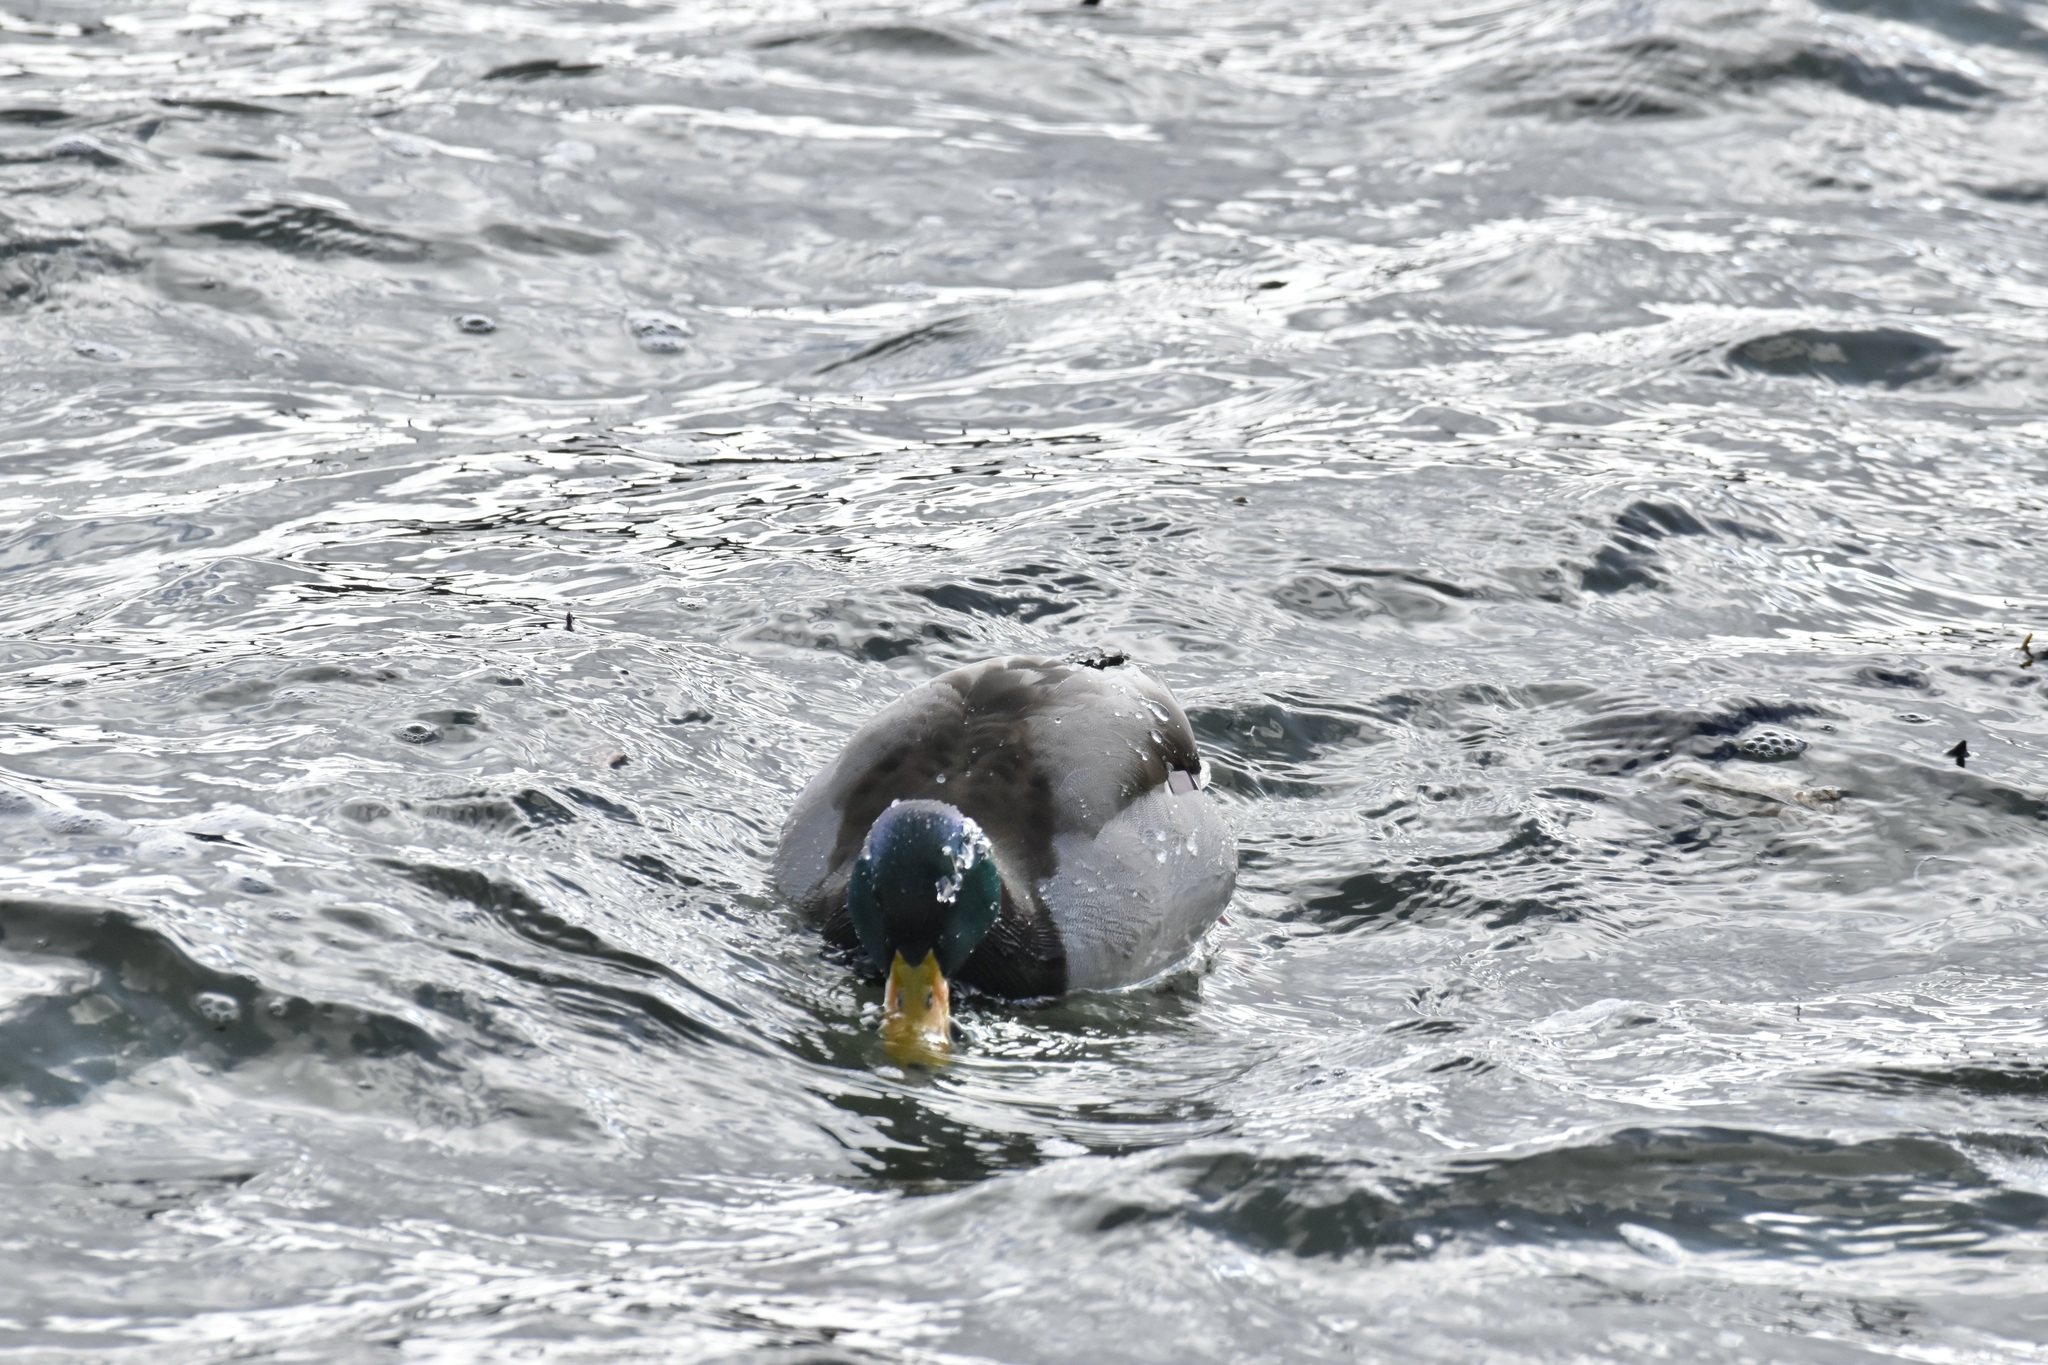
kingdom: Animalia
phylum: Chordata
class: Aves
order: Anseriformes
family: Anatidae
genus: Anas
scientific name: Anas platyrhynchos
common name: Mallard
